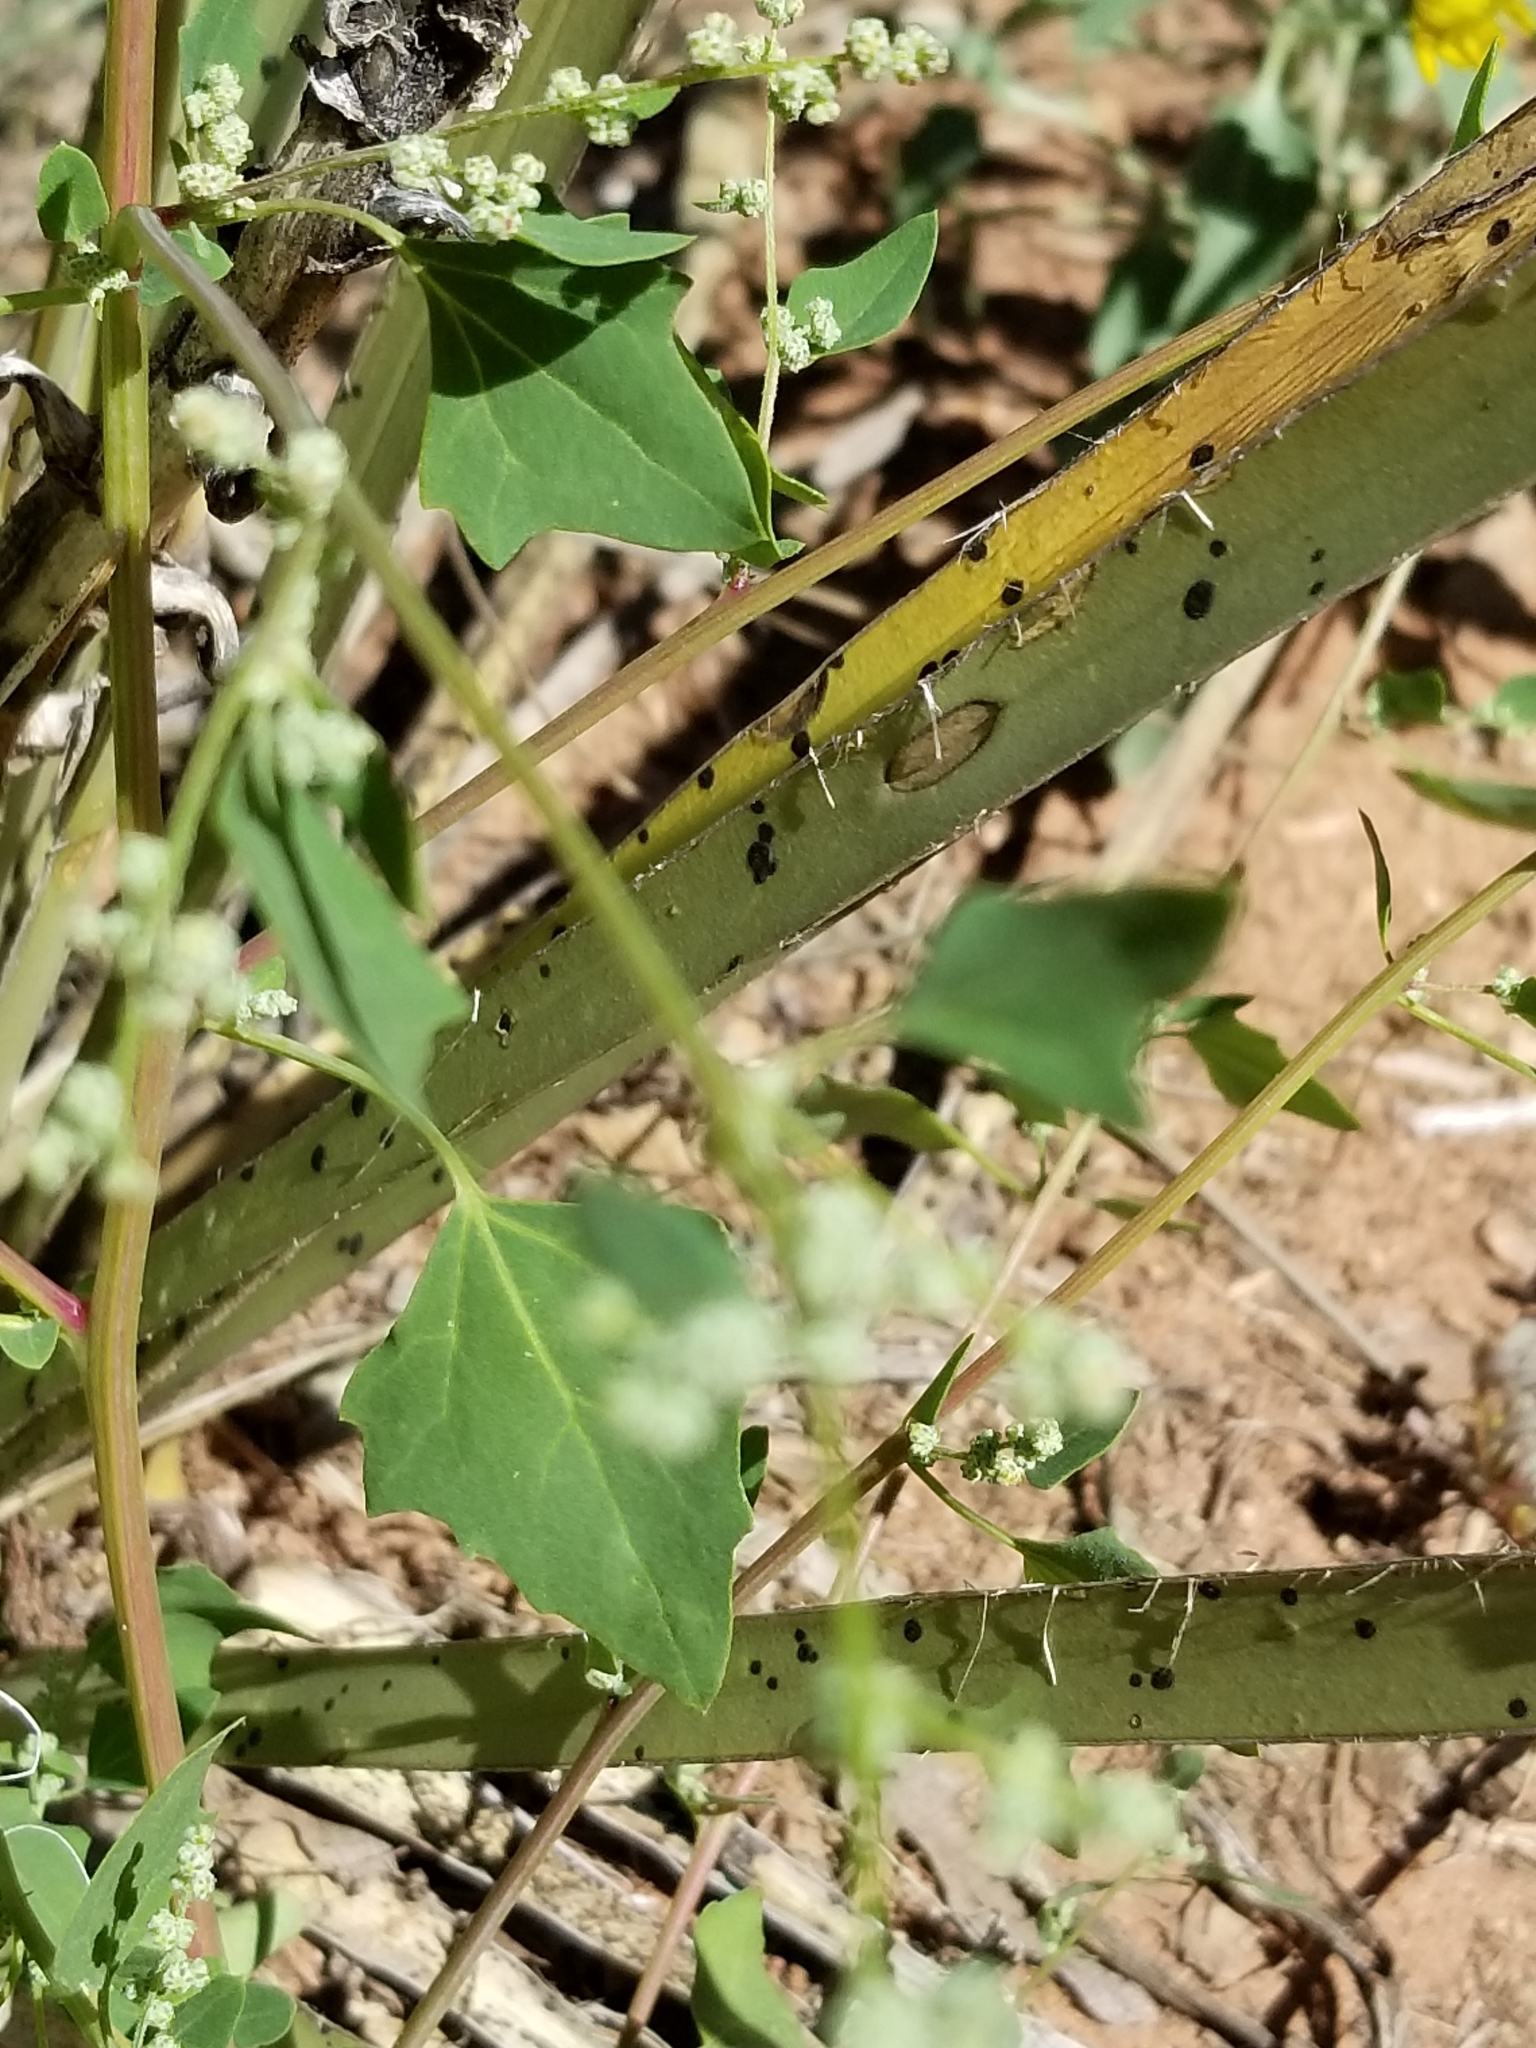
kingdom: Plantae
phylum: Tracheophyta
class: Magnoliopsida
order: Caryophyllales
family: Amaranthaceae
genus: Chenopodium
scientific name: Chenopodium album
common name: Fat-hen
